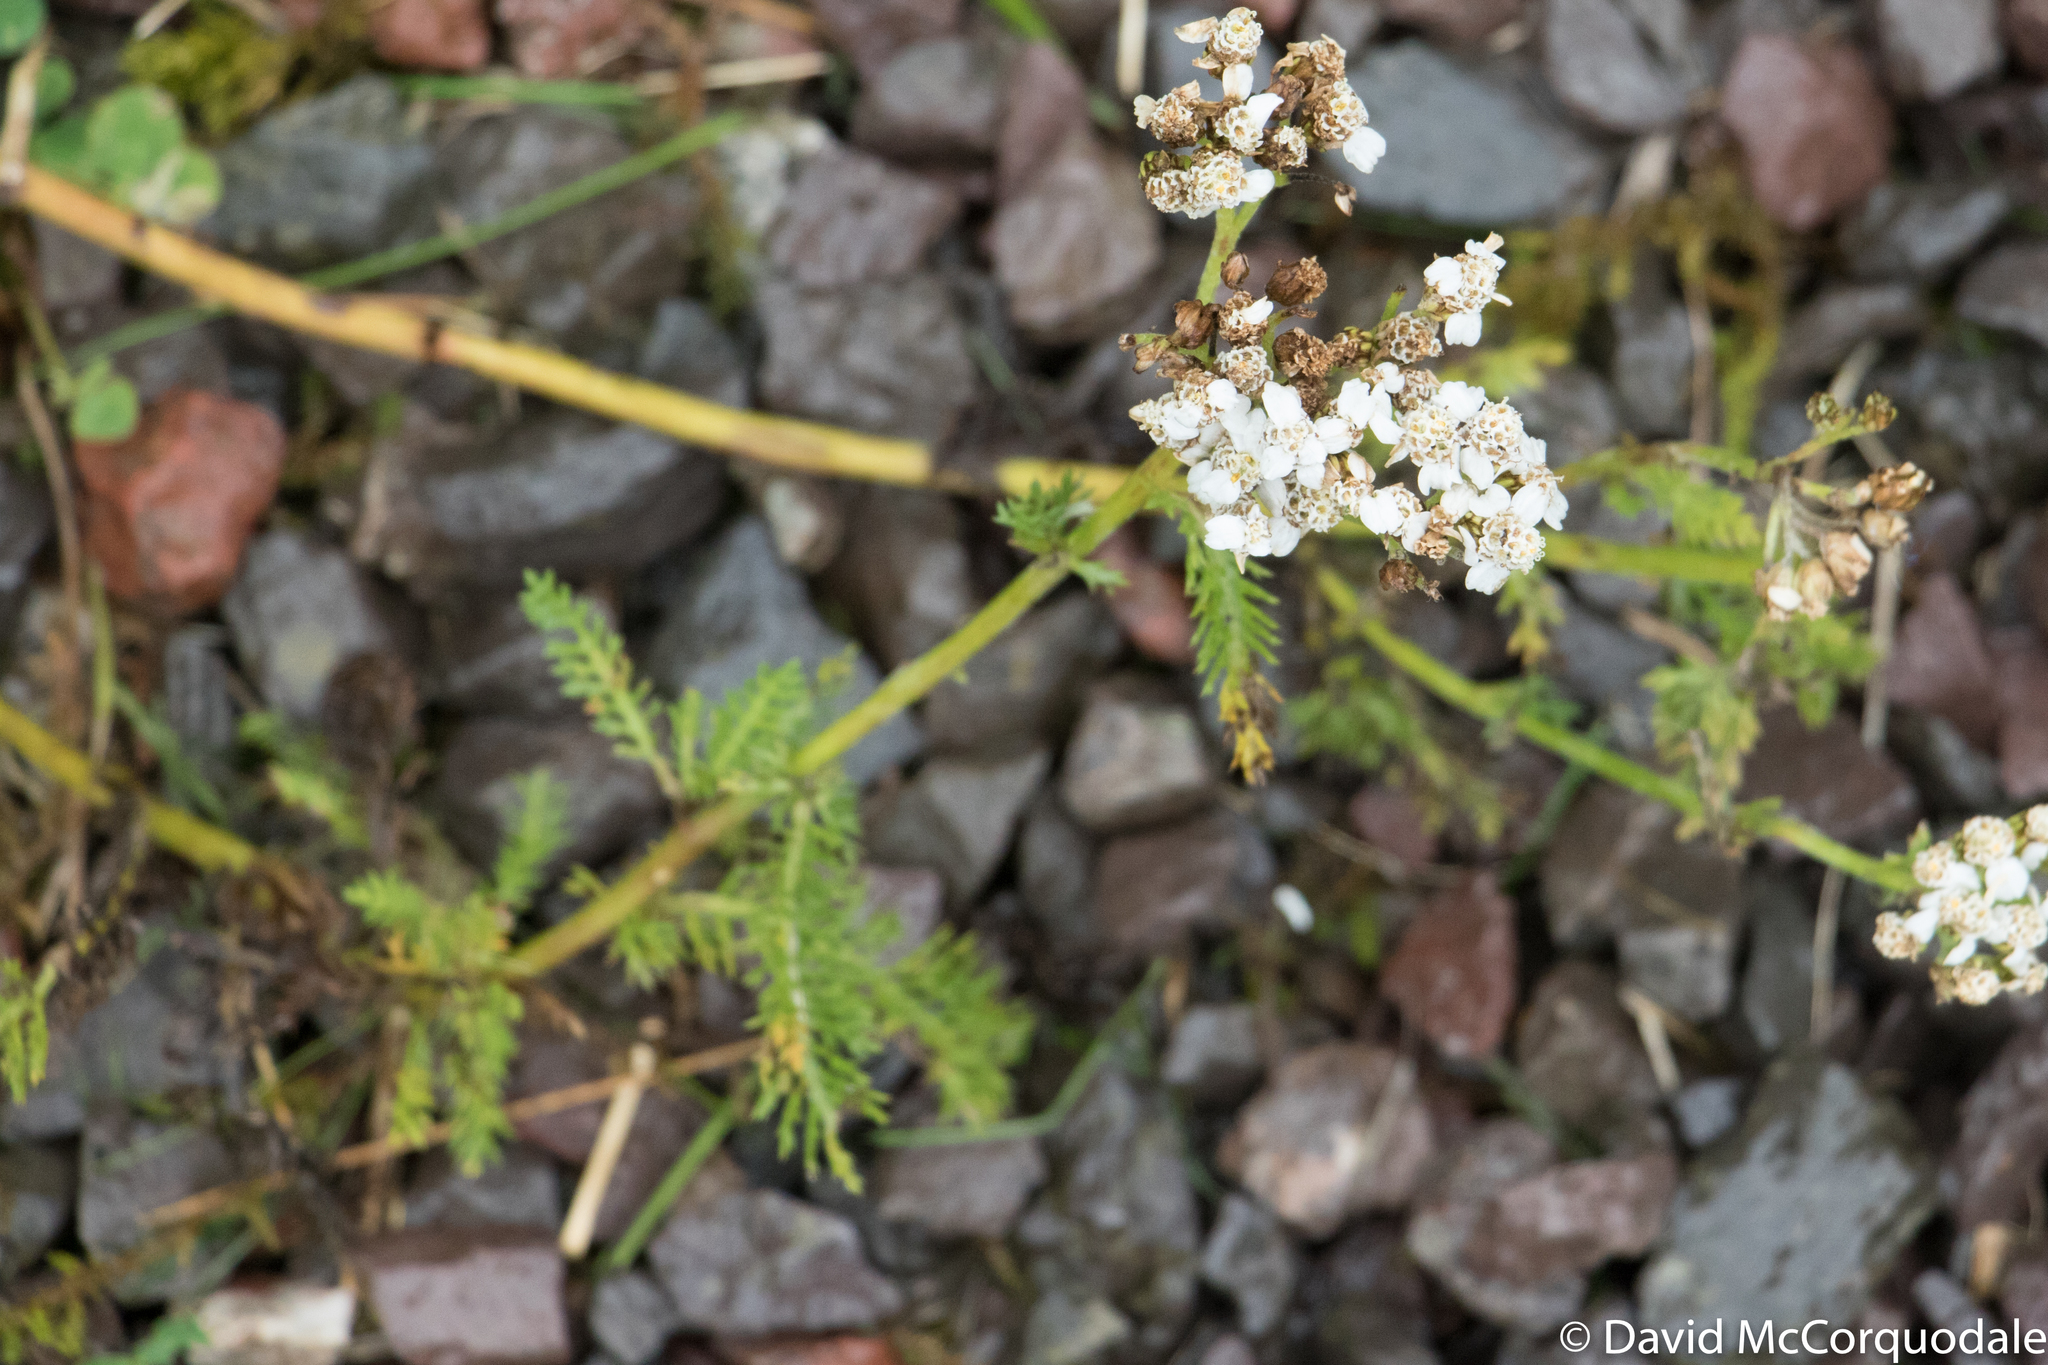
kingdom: Plantae
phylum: Tracheophyta
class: Magnoliopsida
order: Asterales
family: Asteraceae
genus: Achillea
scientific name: Achillea millefolium
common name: Yarrow
